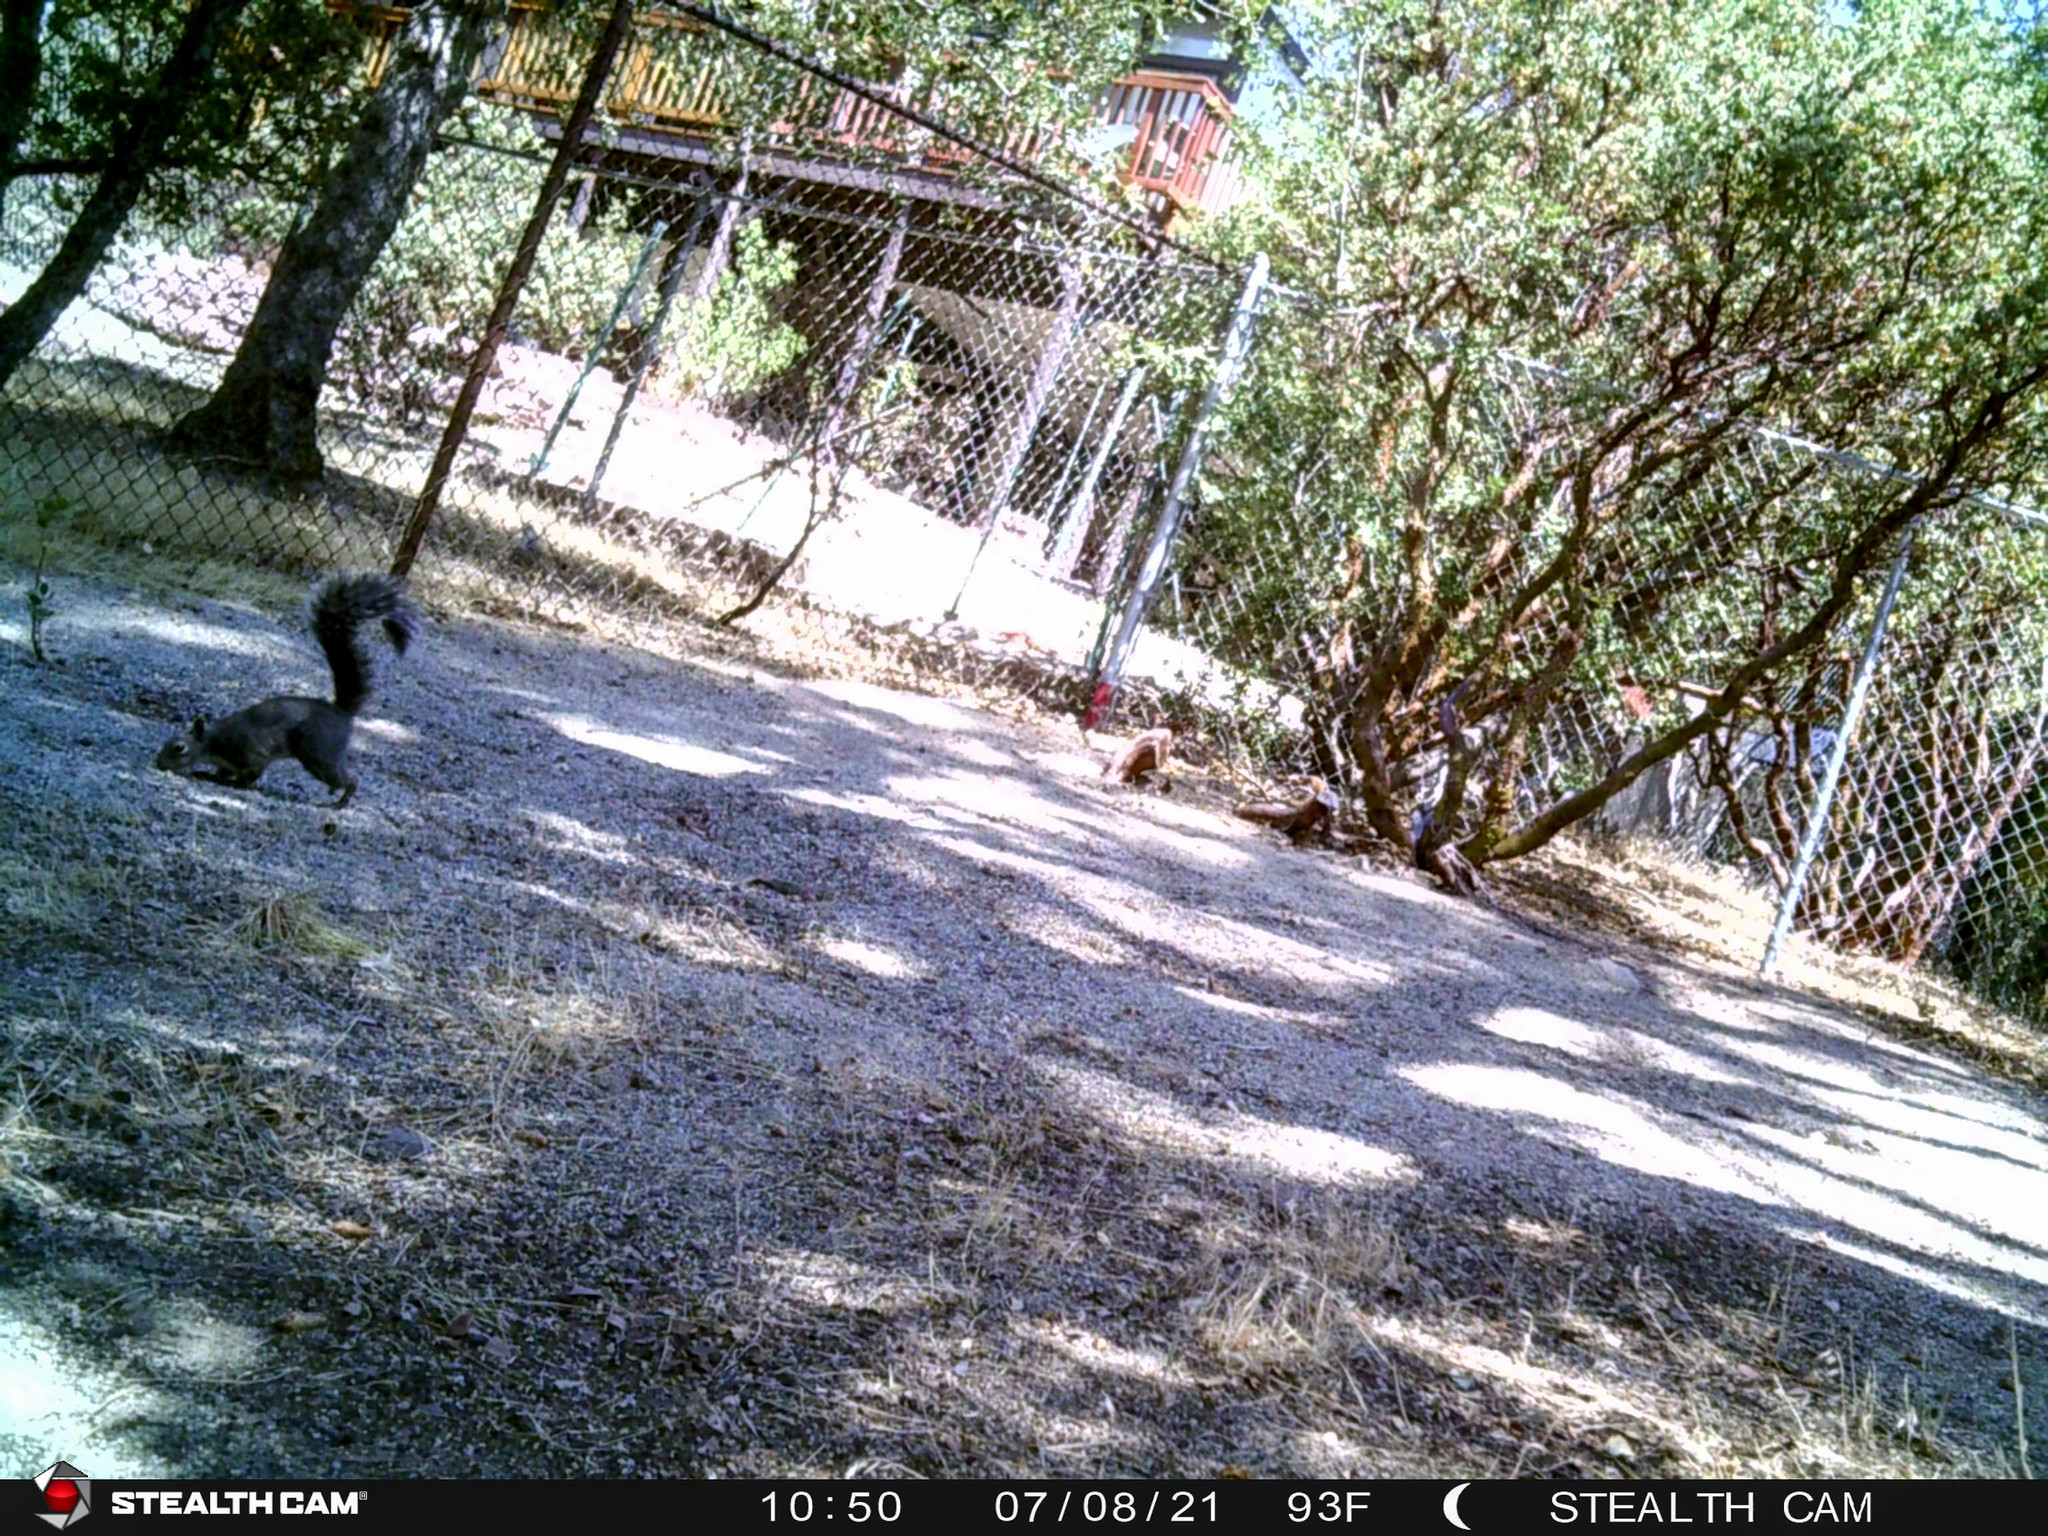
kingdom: Animalia
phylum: Chordata
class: Mammalia
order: Rodentia
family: Sciuridae
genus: Sciurus
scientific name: Sciurus griseus
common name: Western gray squirrel
